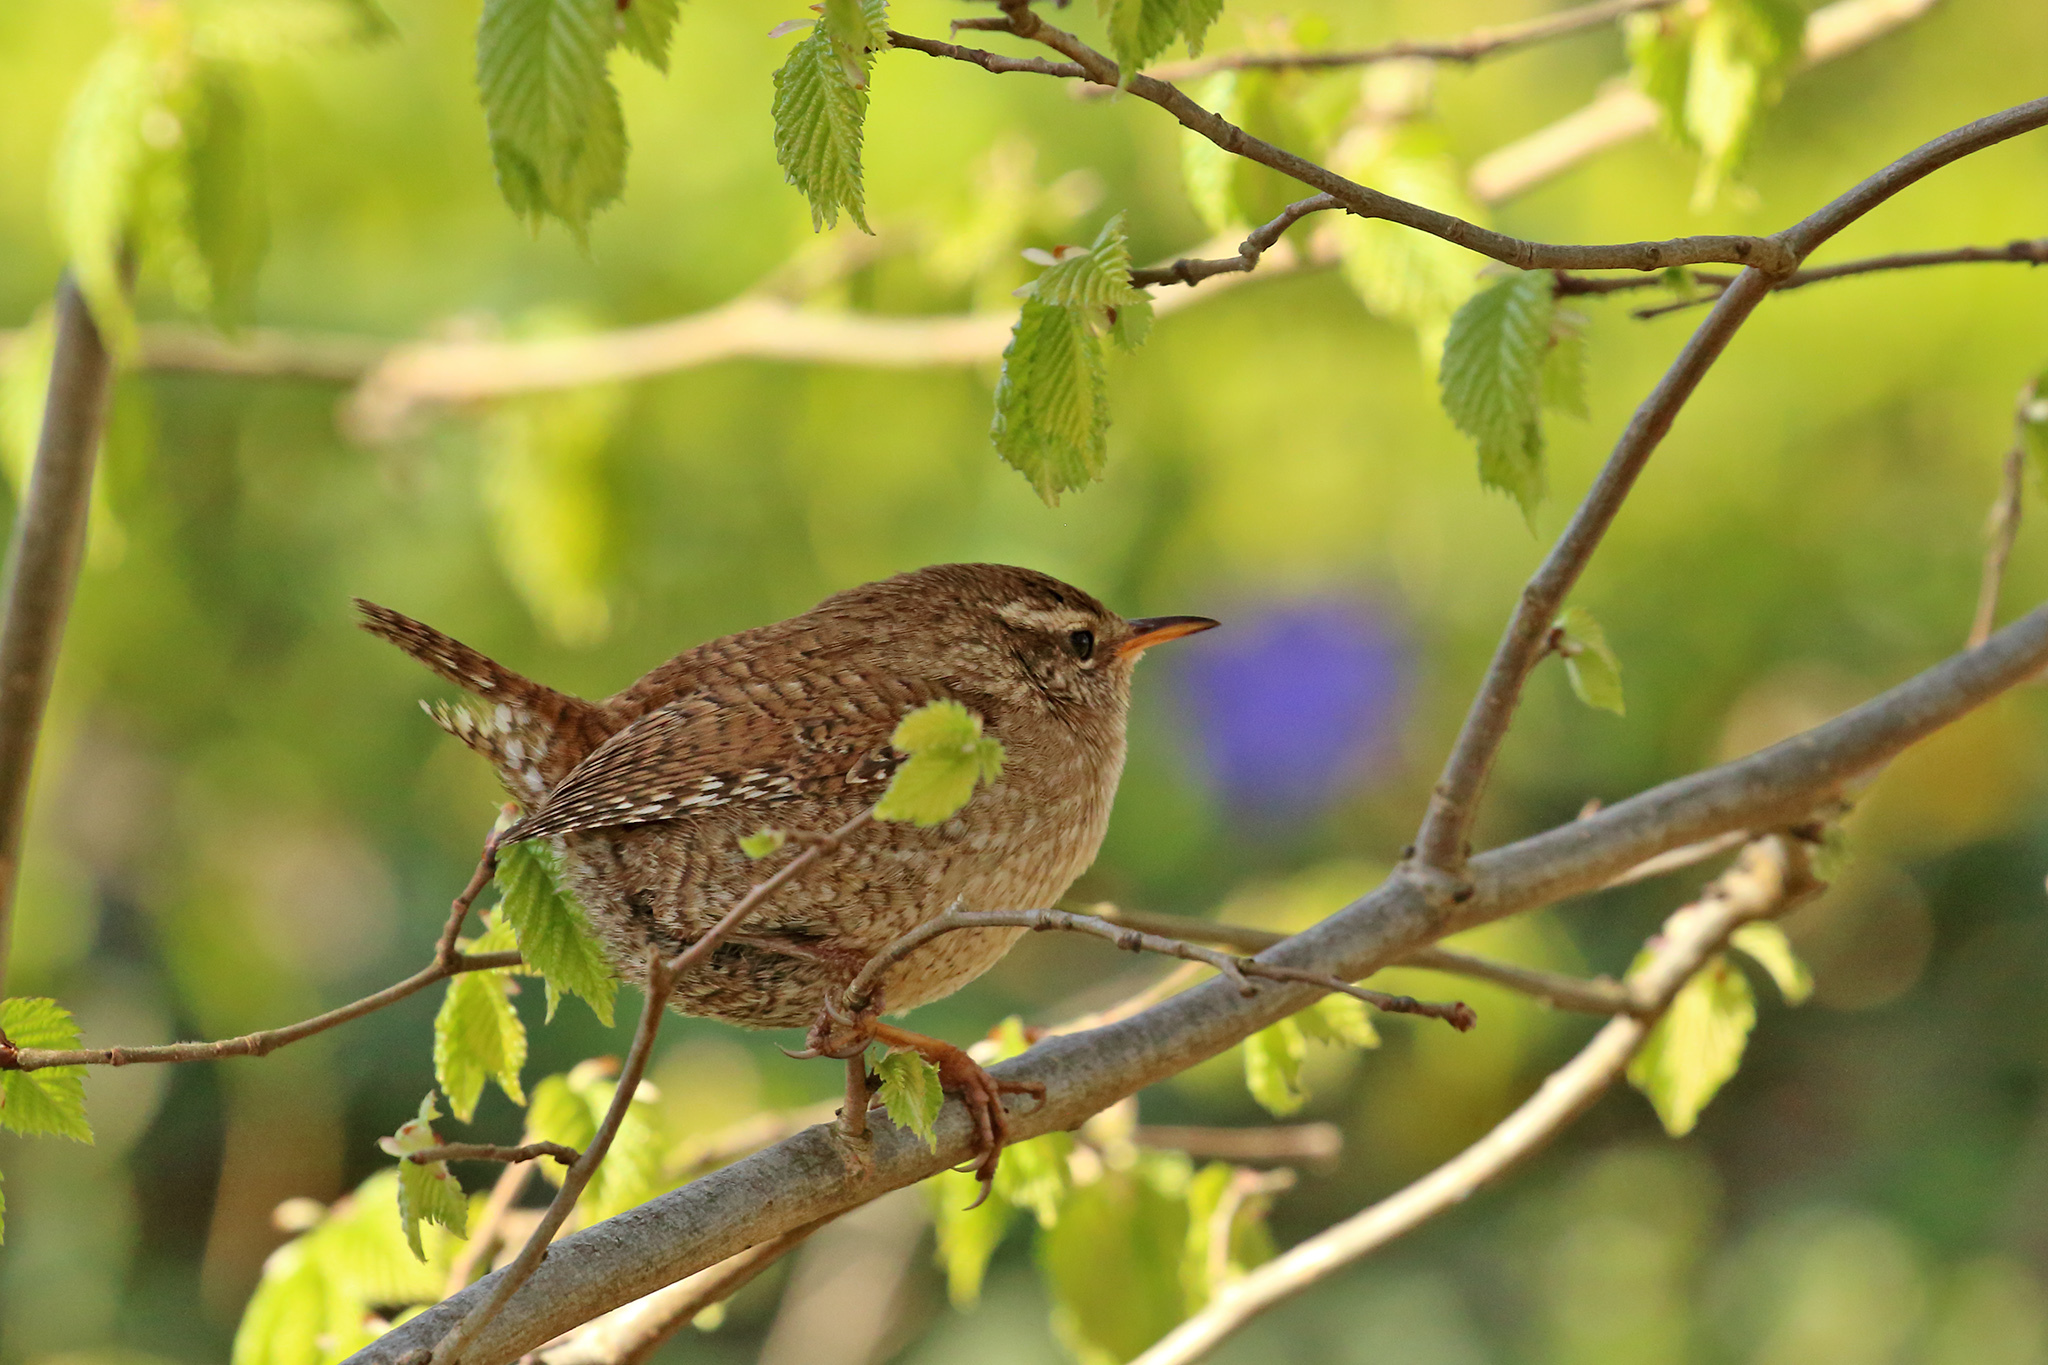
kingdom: Animalia
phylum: Chordata
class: Aves
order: Passeriformes
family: Troglodytidae
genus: Troglodytes
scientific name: Troglodytes troglodytes
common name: Eurasian wren
